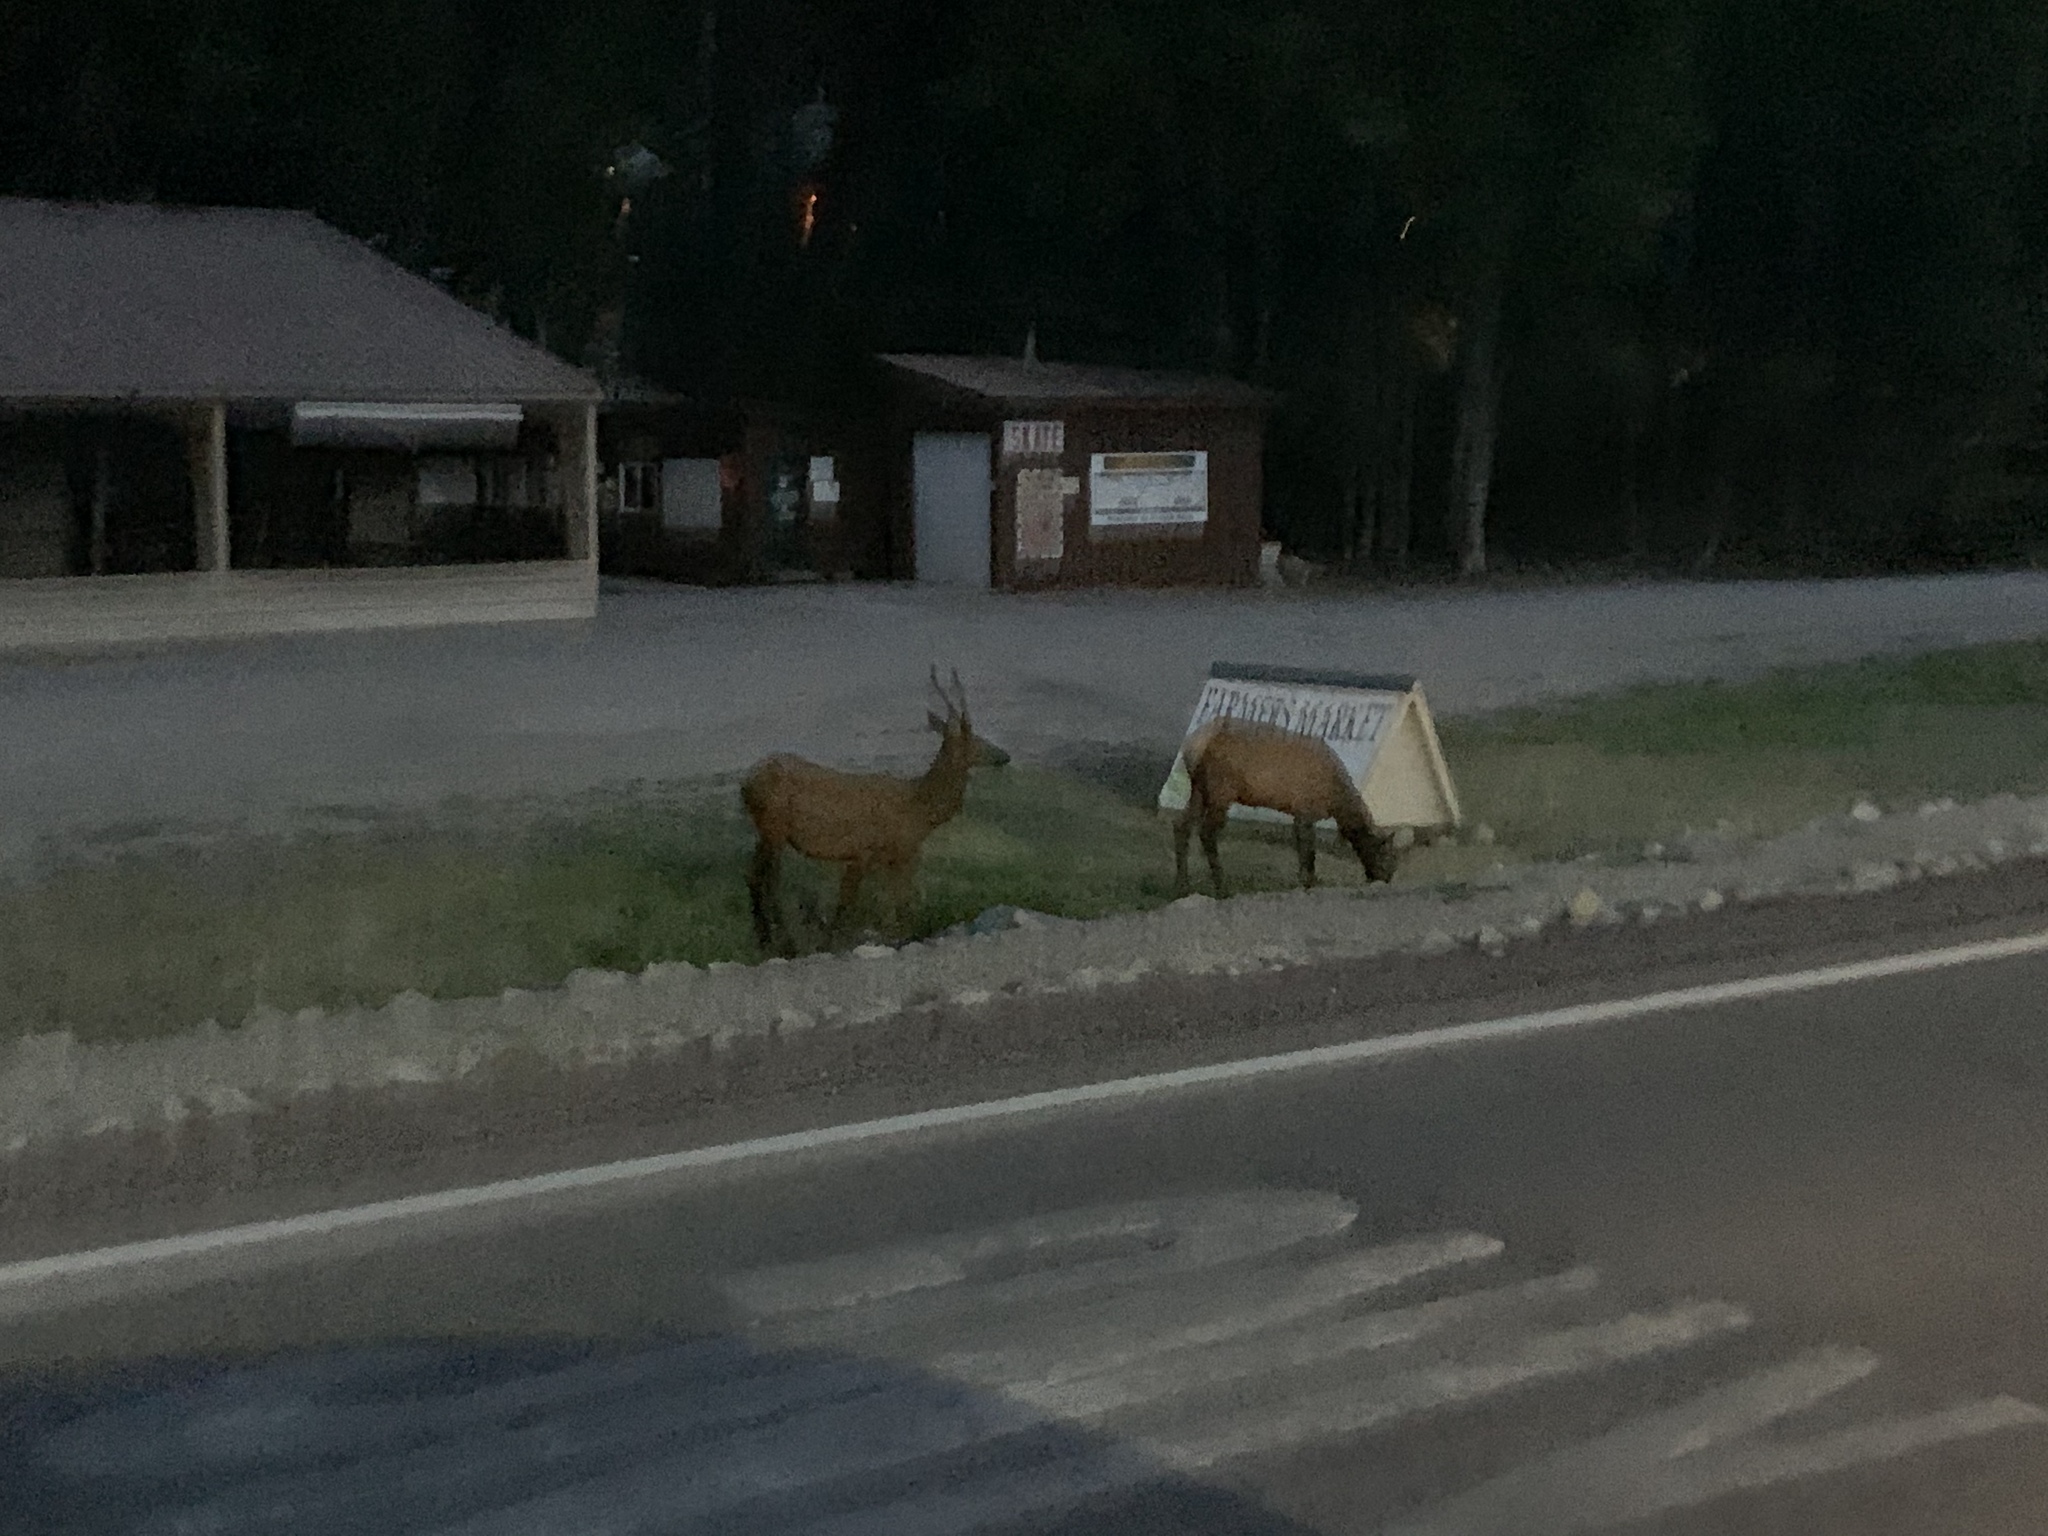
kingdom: Animalia
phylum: Chordata
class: Mammalia
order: Artiodactyla
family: Cervidae
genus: Cervus
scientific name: Cervus elaphus
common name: Red deer
